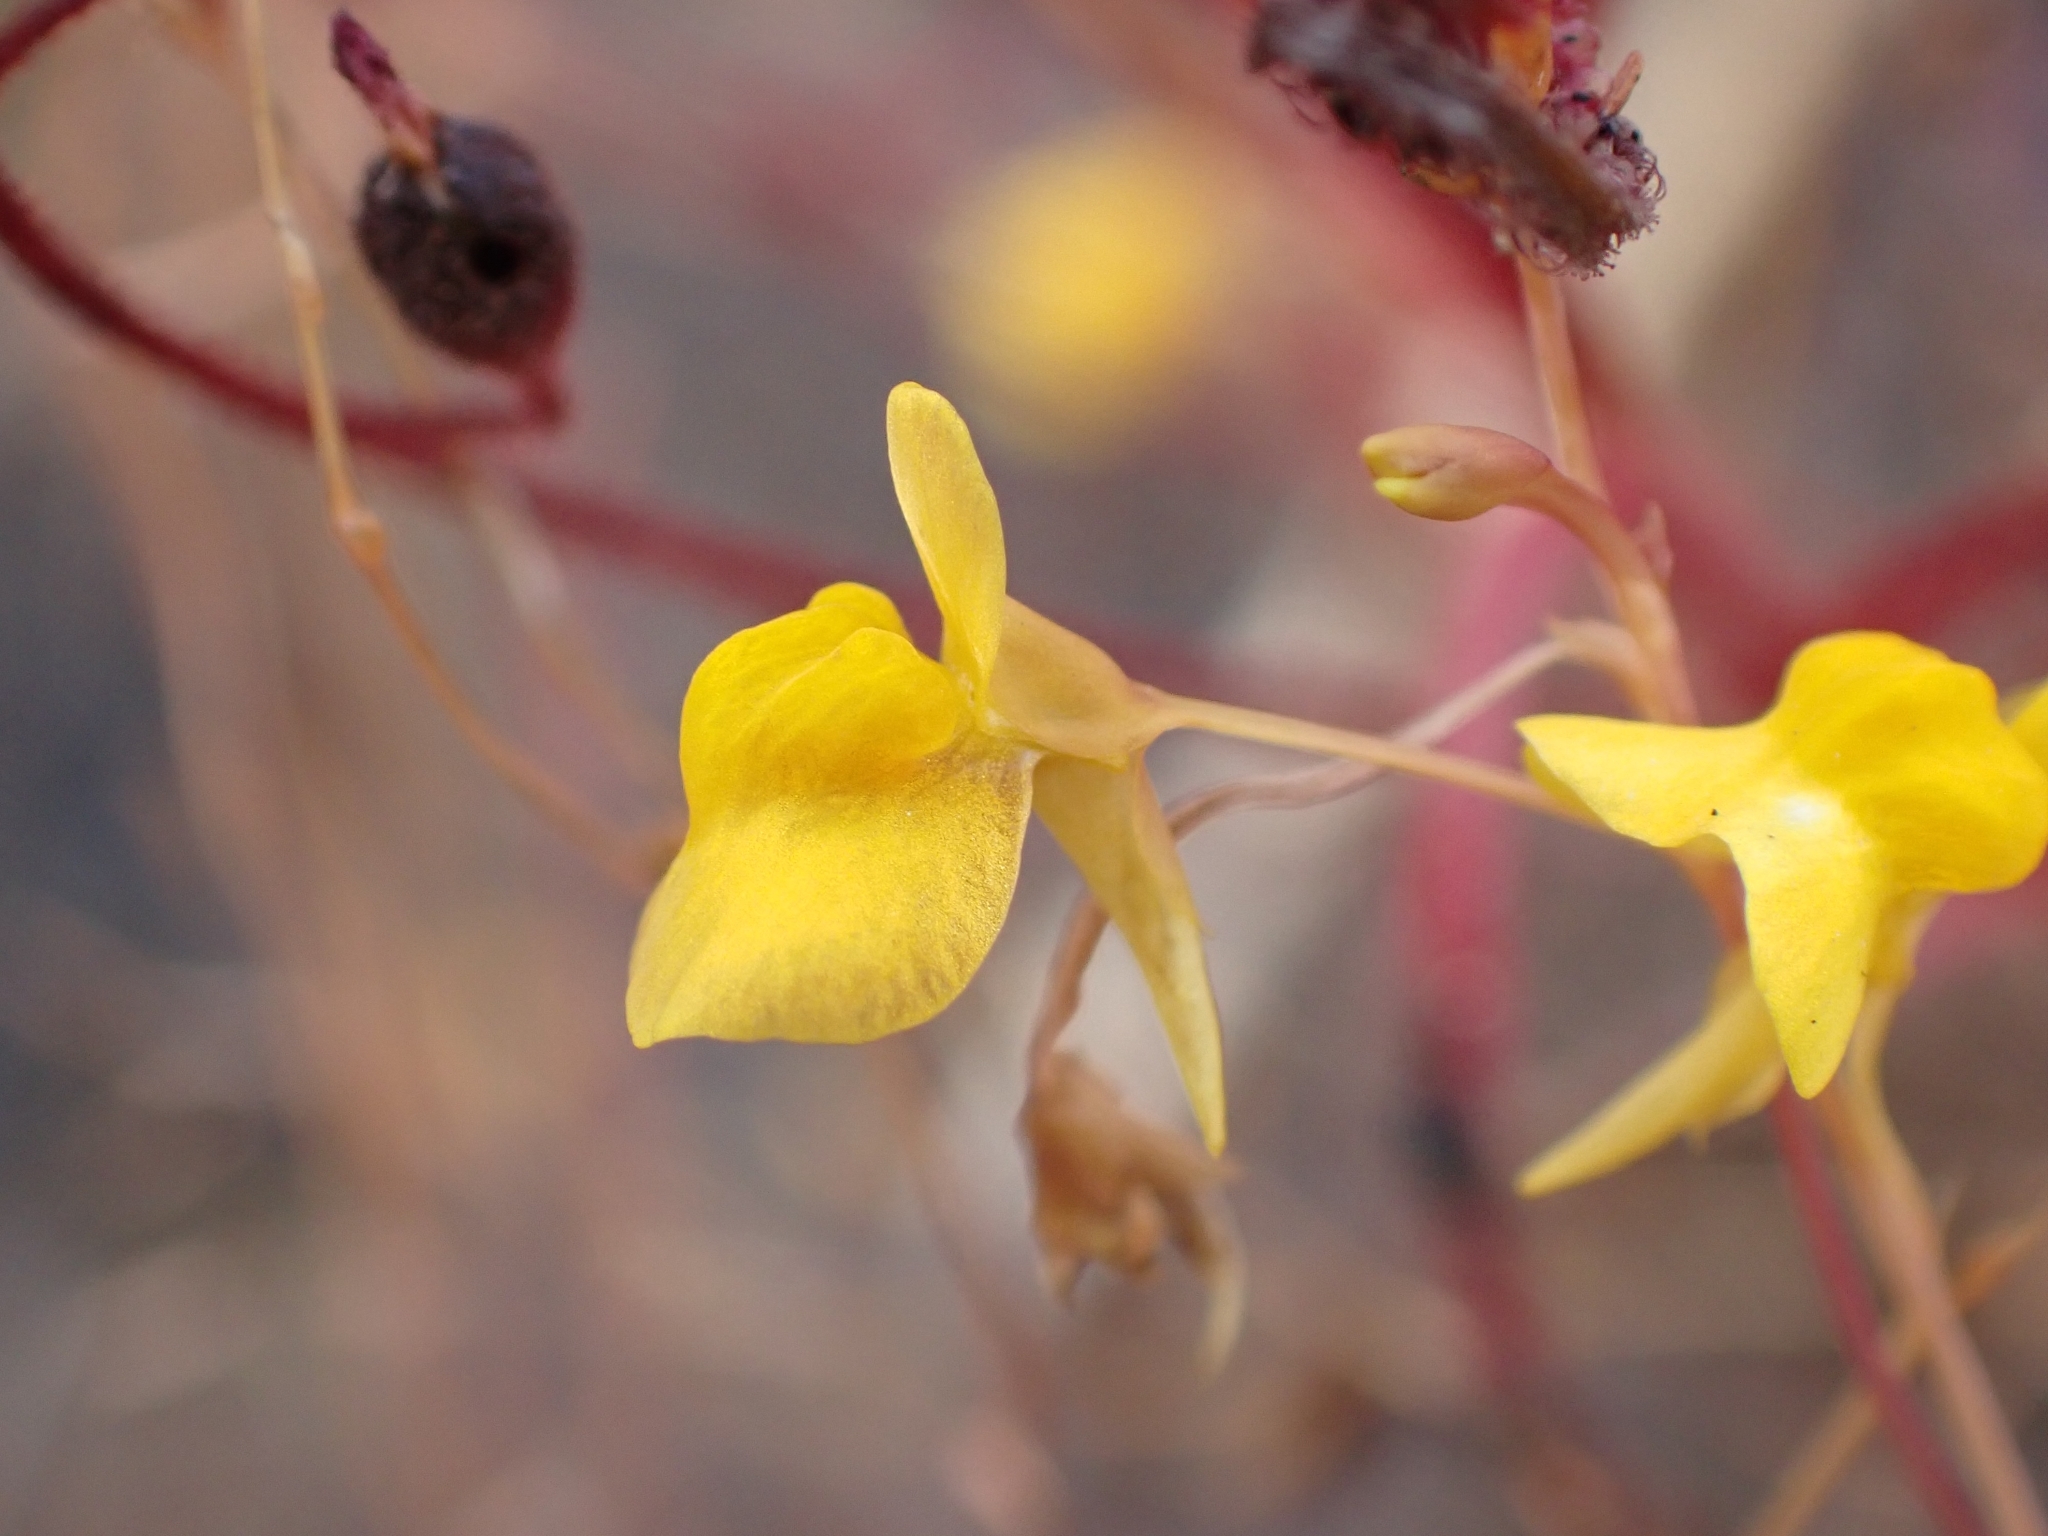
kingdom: Plantae
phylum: Tracheophyta
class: Magnoliopsida
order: Lamiales
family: Lentibulariaceae
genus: Utricularia
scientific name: Utricularia bifida
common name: Bifid bladderwort
